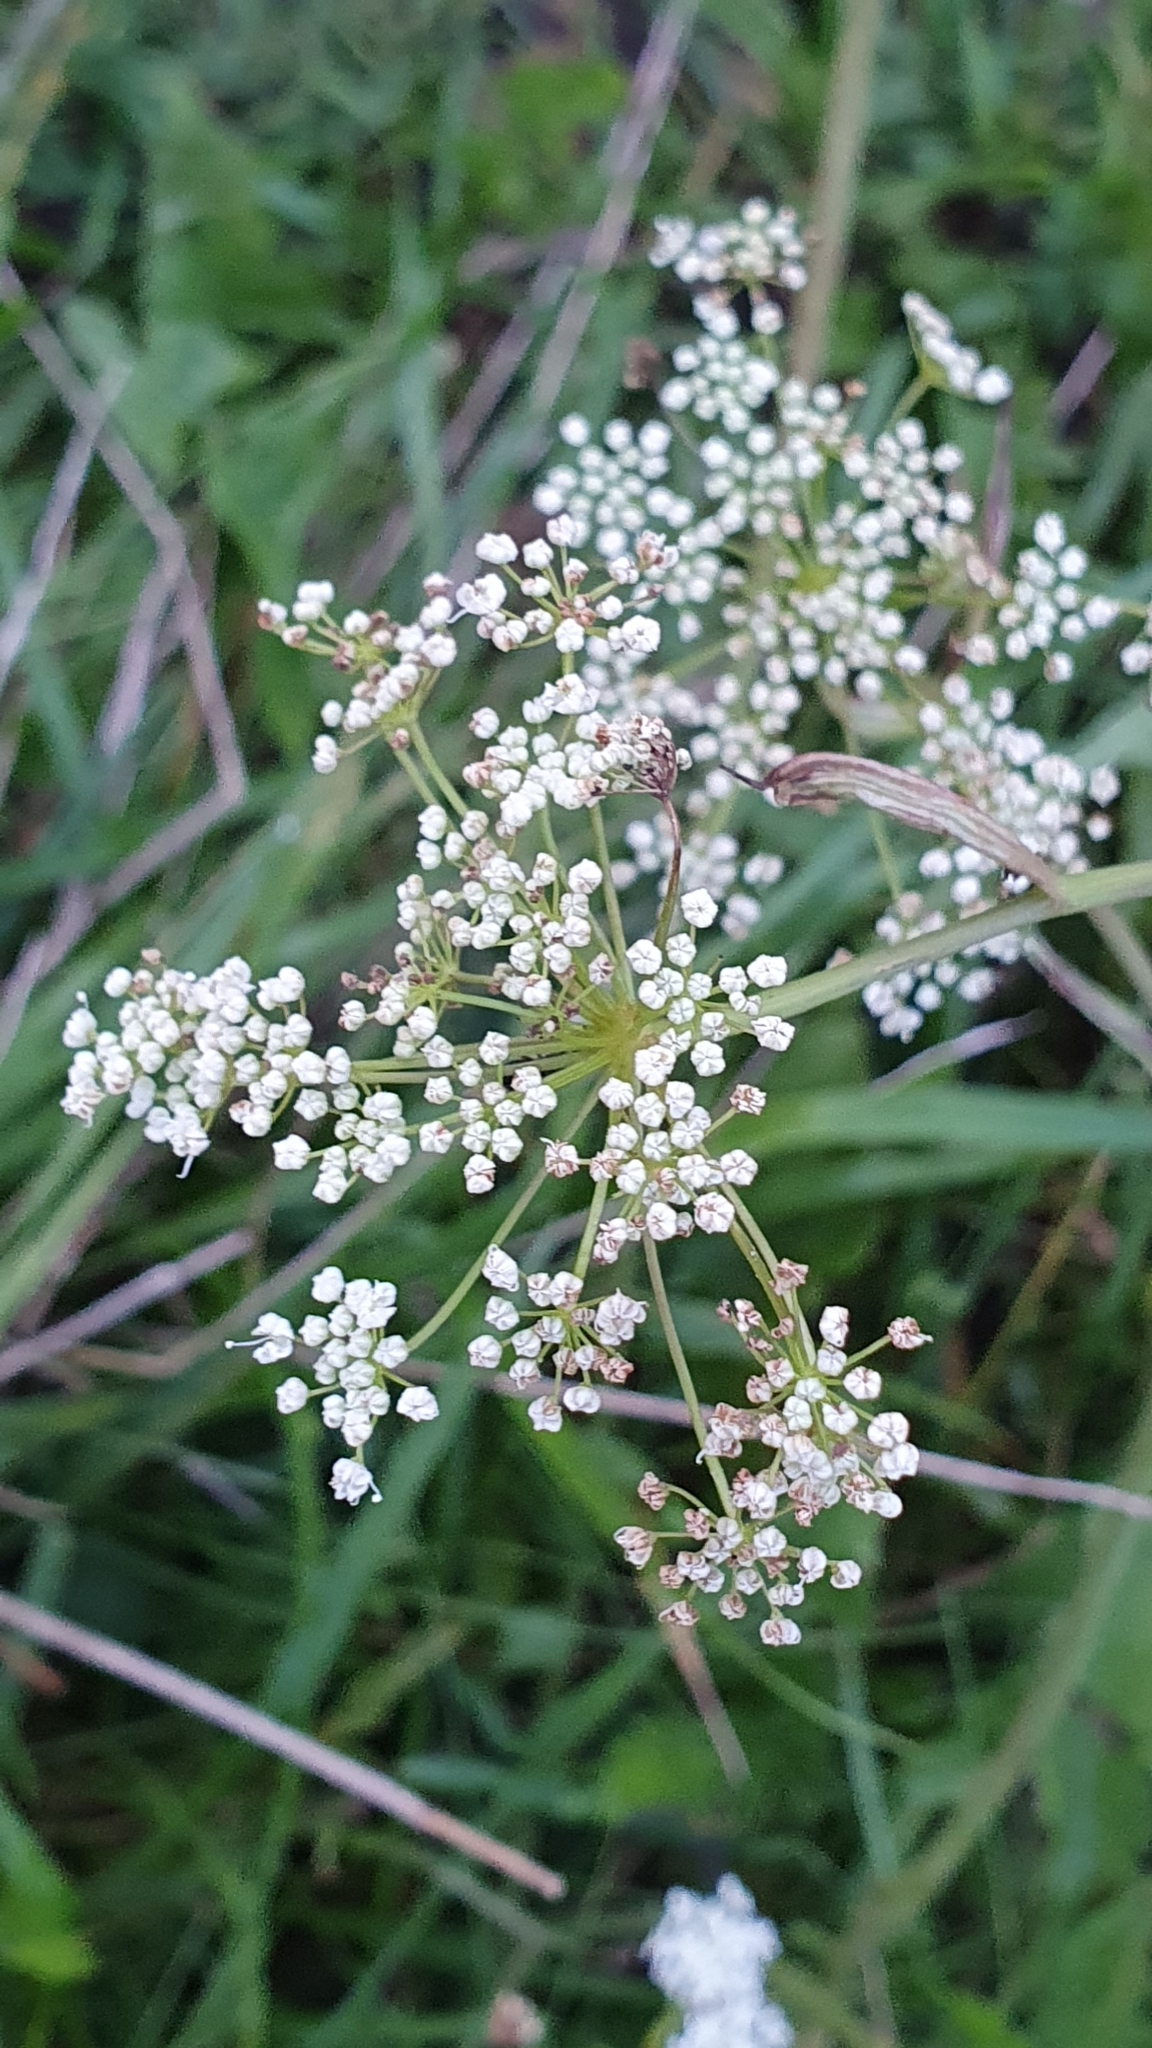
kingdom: Plantae
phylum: Tracheophyta
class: Magnoliopsida
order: Apiales
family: Apiaceae
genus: Pimpinella
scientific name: Pimpinella saxifraga
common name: Burnet-saxifrage
